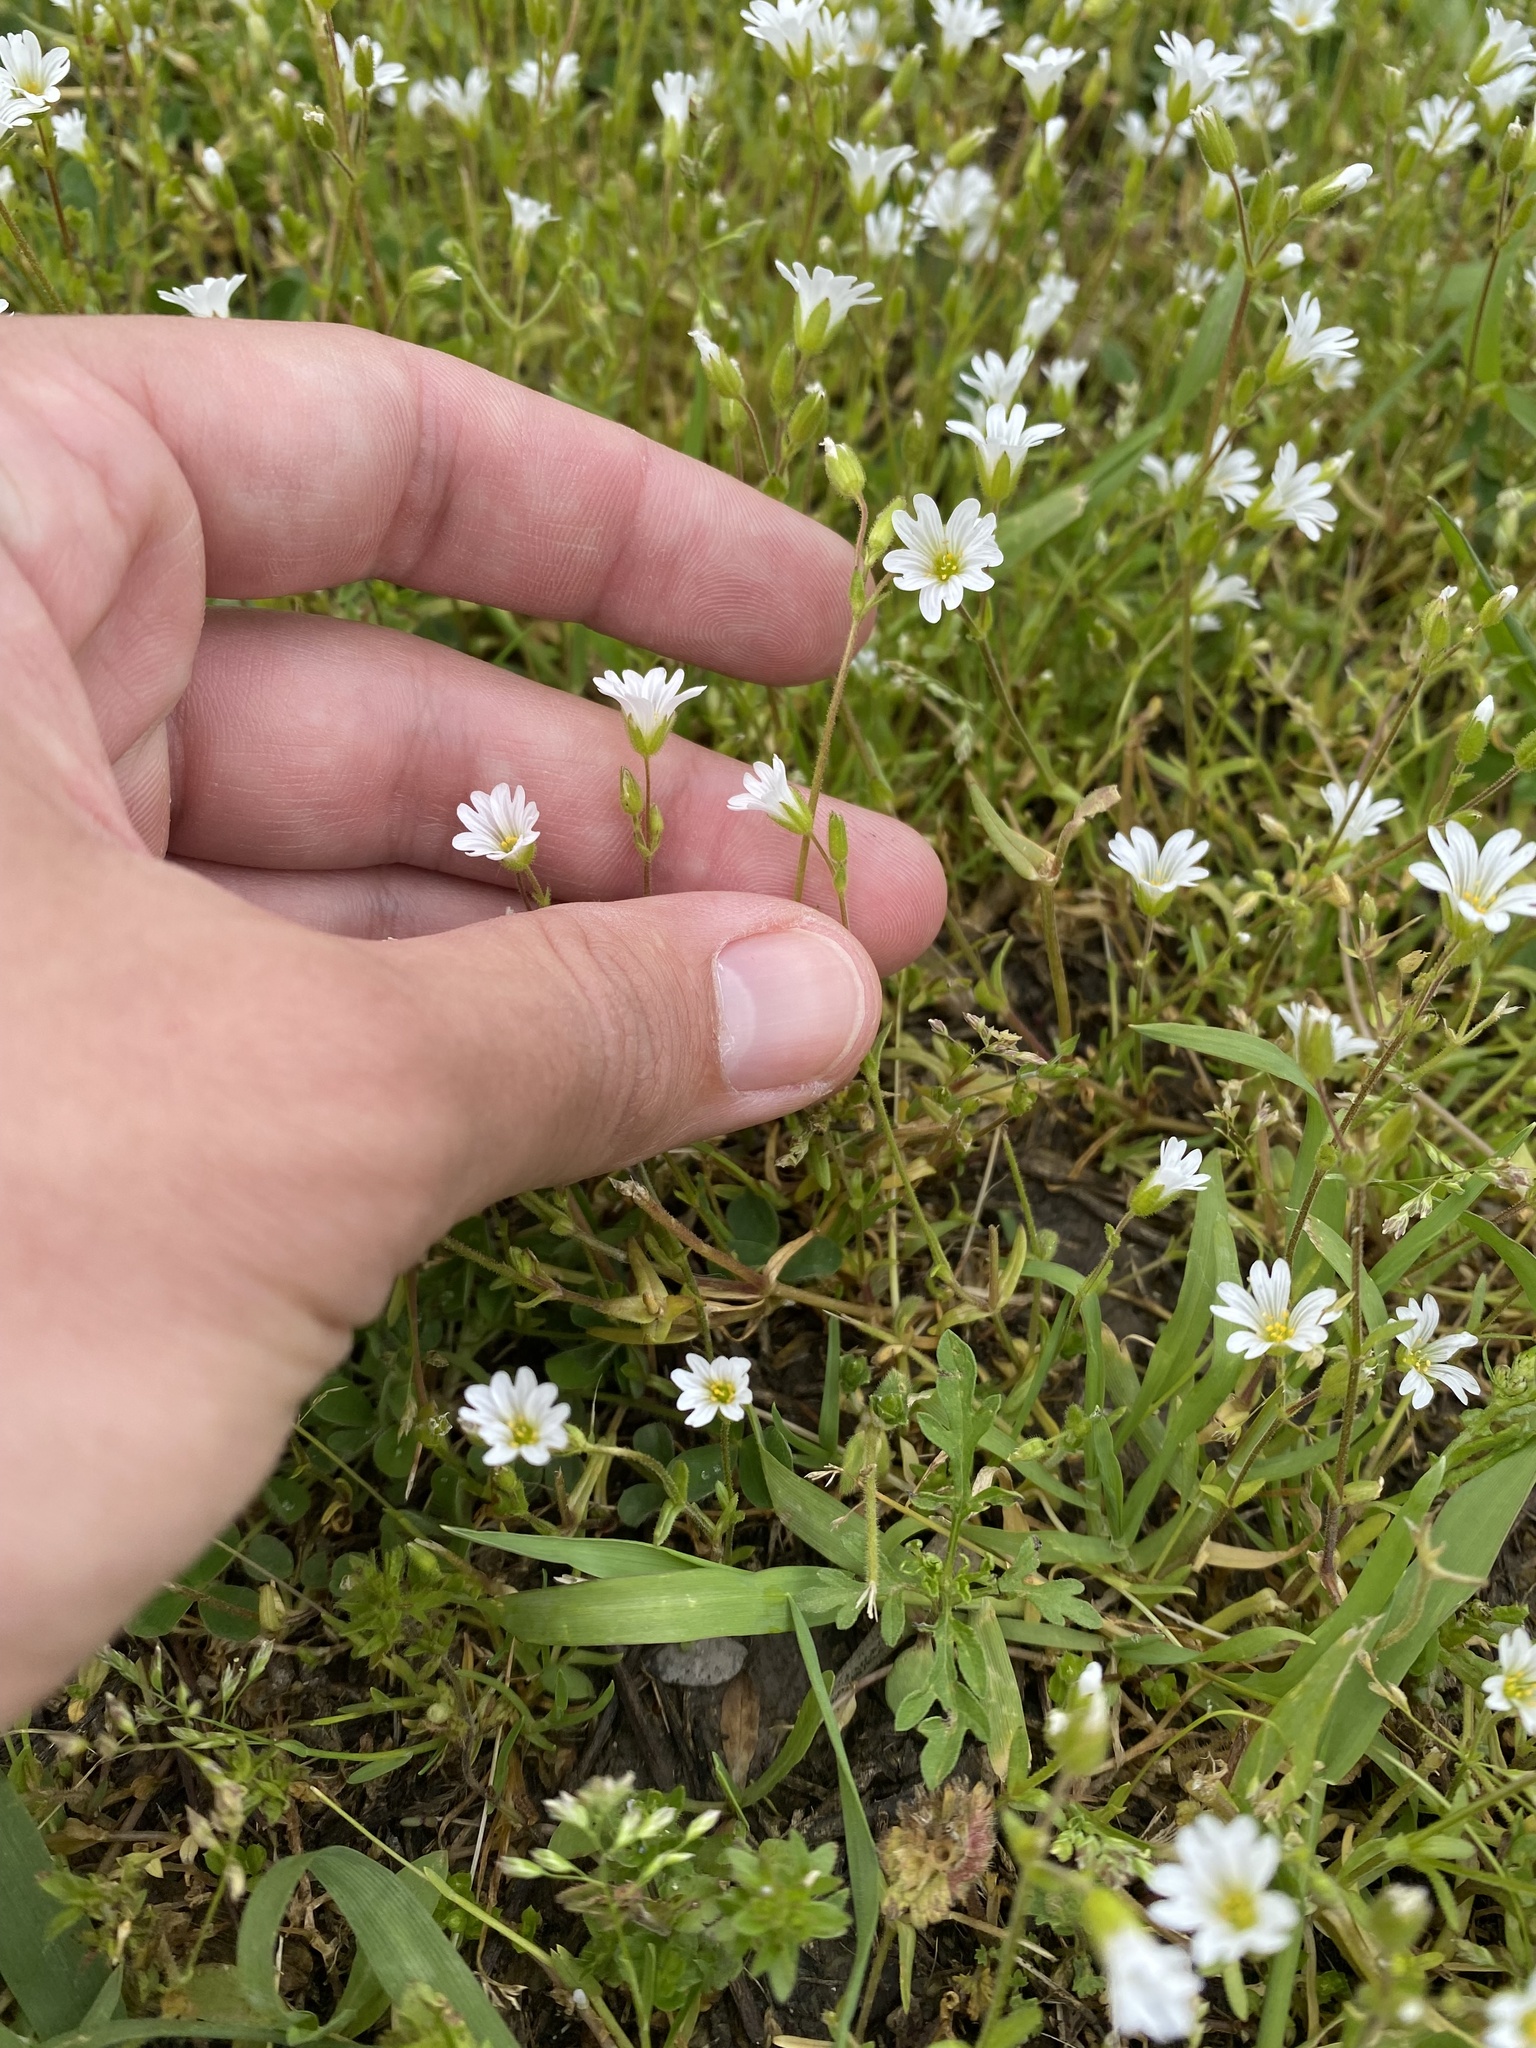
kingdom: Plantae
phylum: Tracheophyta
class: Magnoliopsida
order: Caryophyllales
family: Caryophyllaceae
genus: Dichodon
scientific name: Dichodon viscidum
